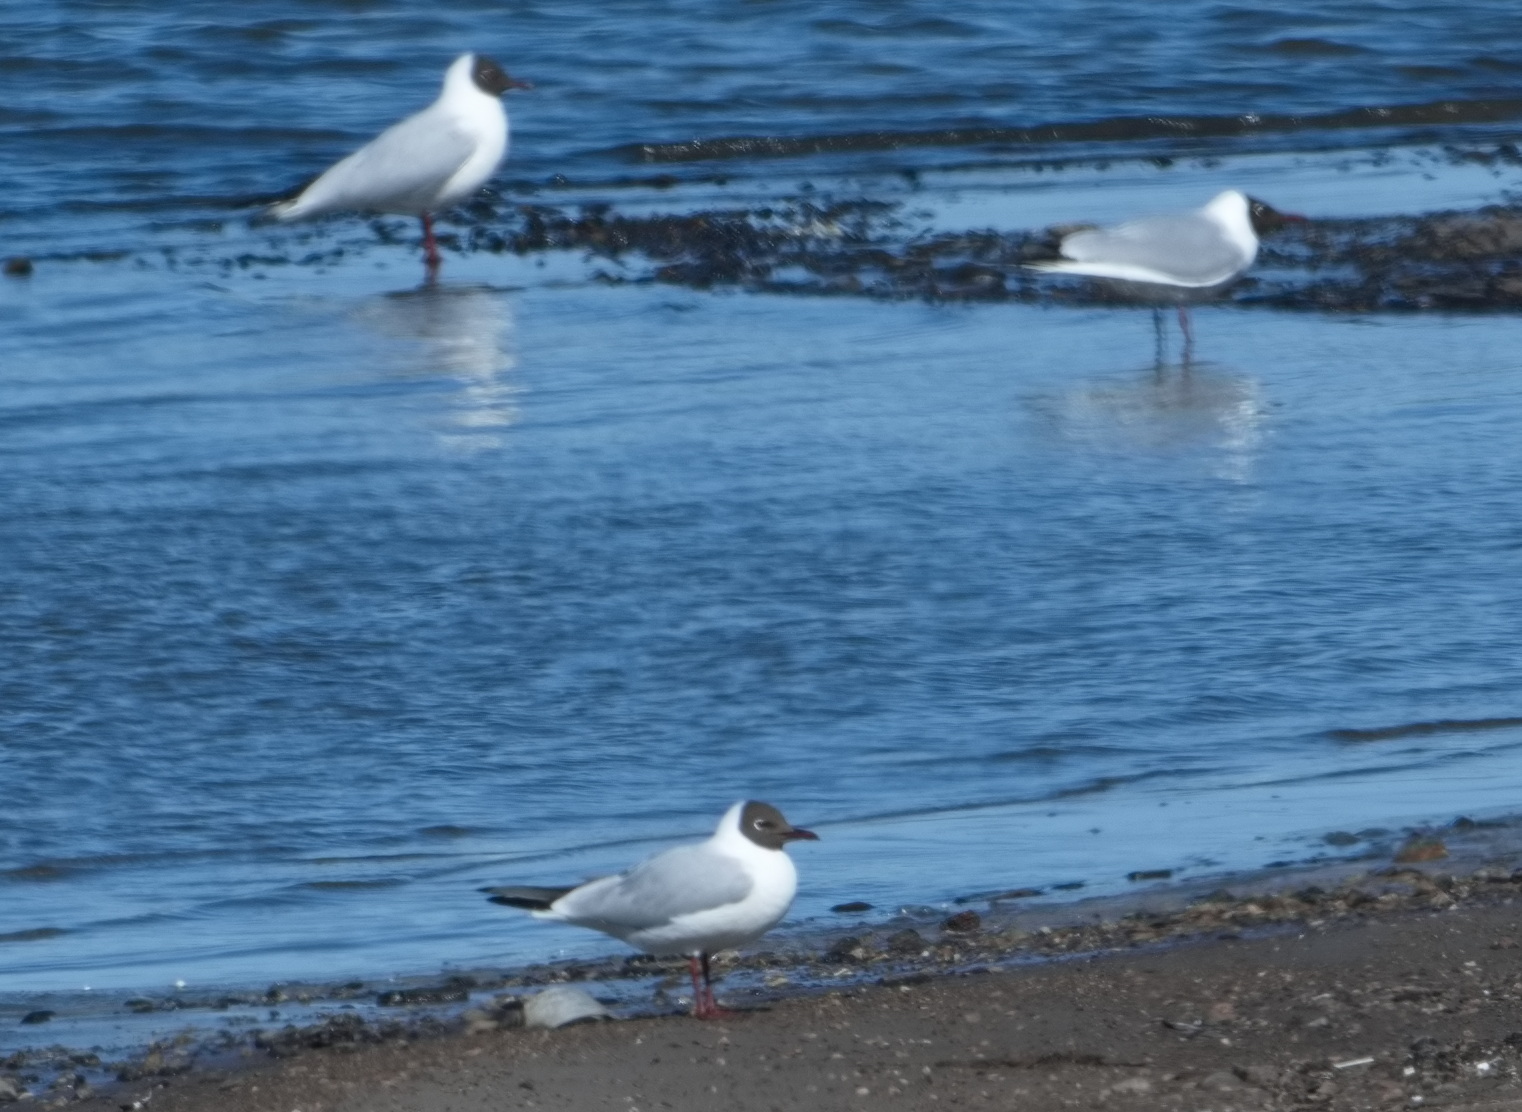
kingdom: Animalia
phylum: Chordata
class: Aves
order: Charadriiformes
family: Laridae
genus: Chroicocephalus
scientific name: Chroicocephalus ridibundus
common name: Black-headed gull
